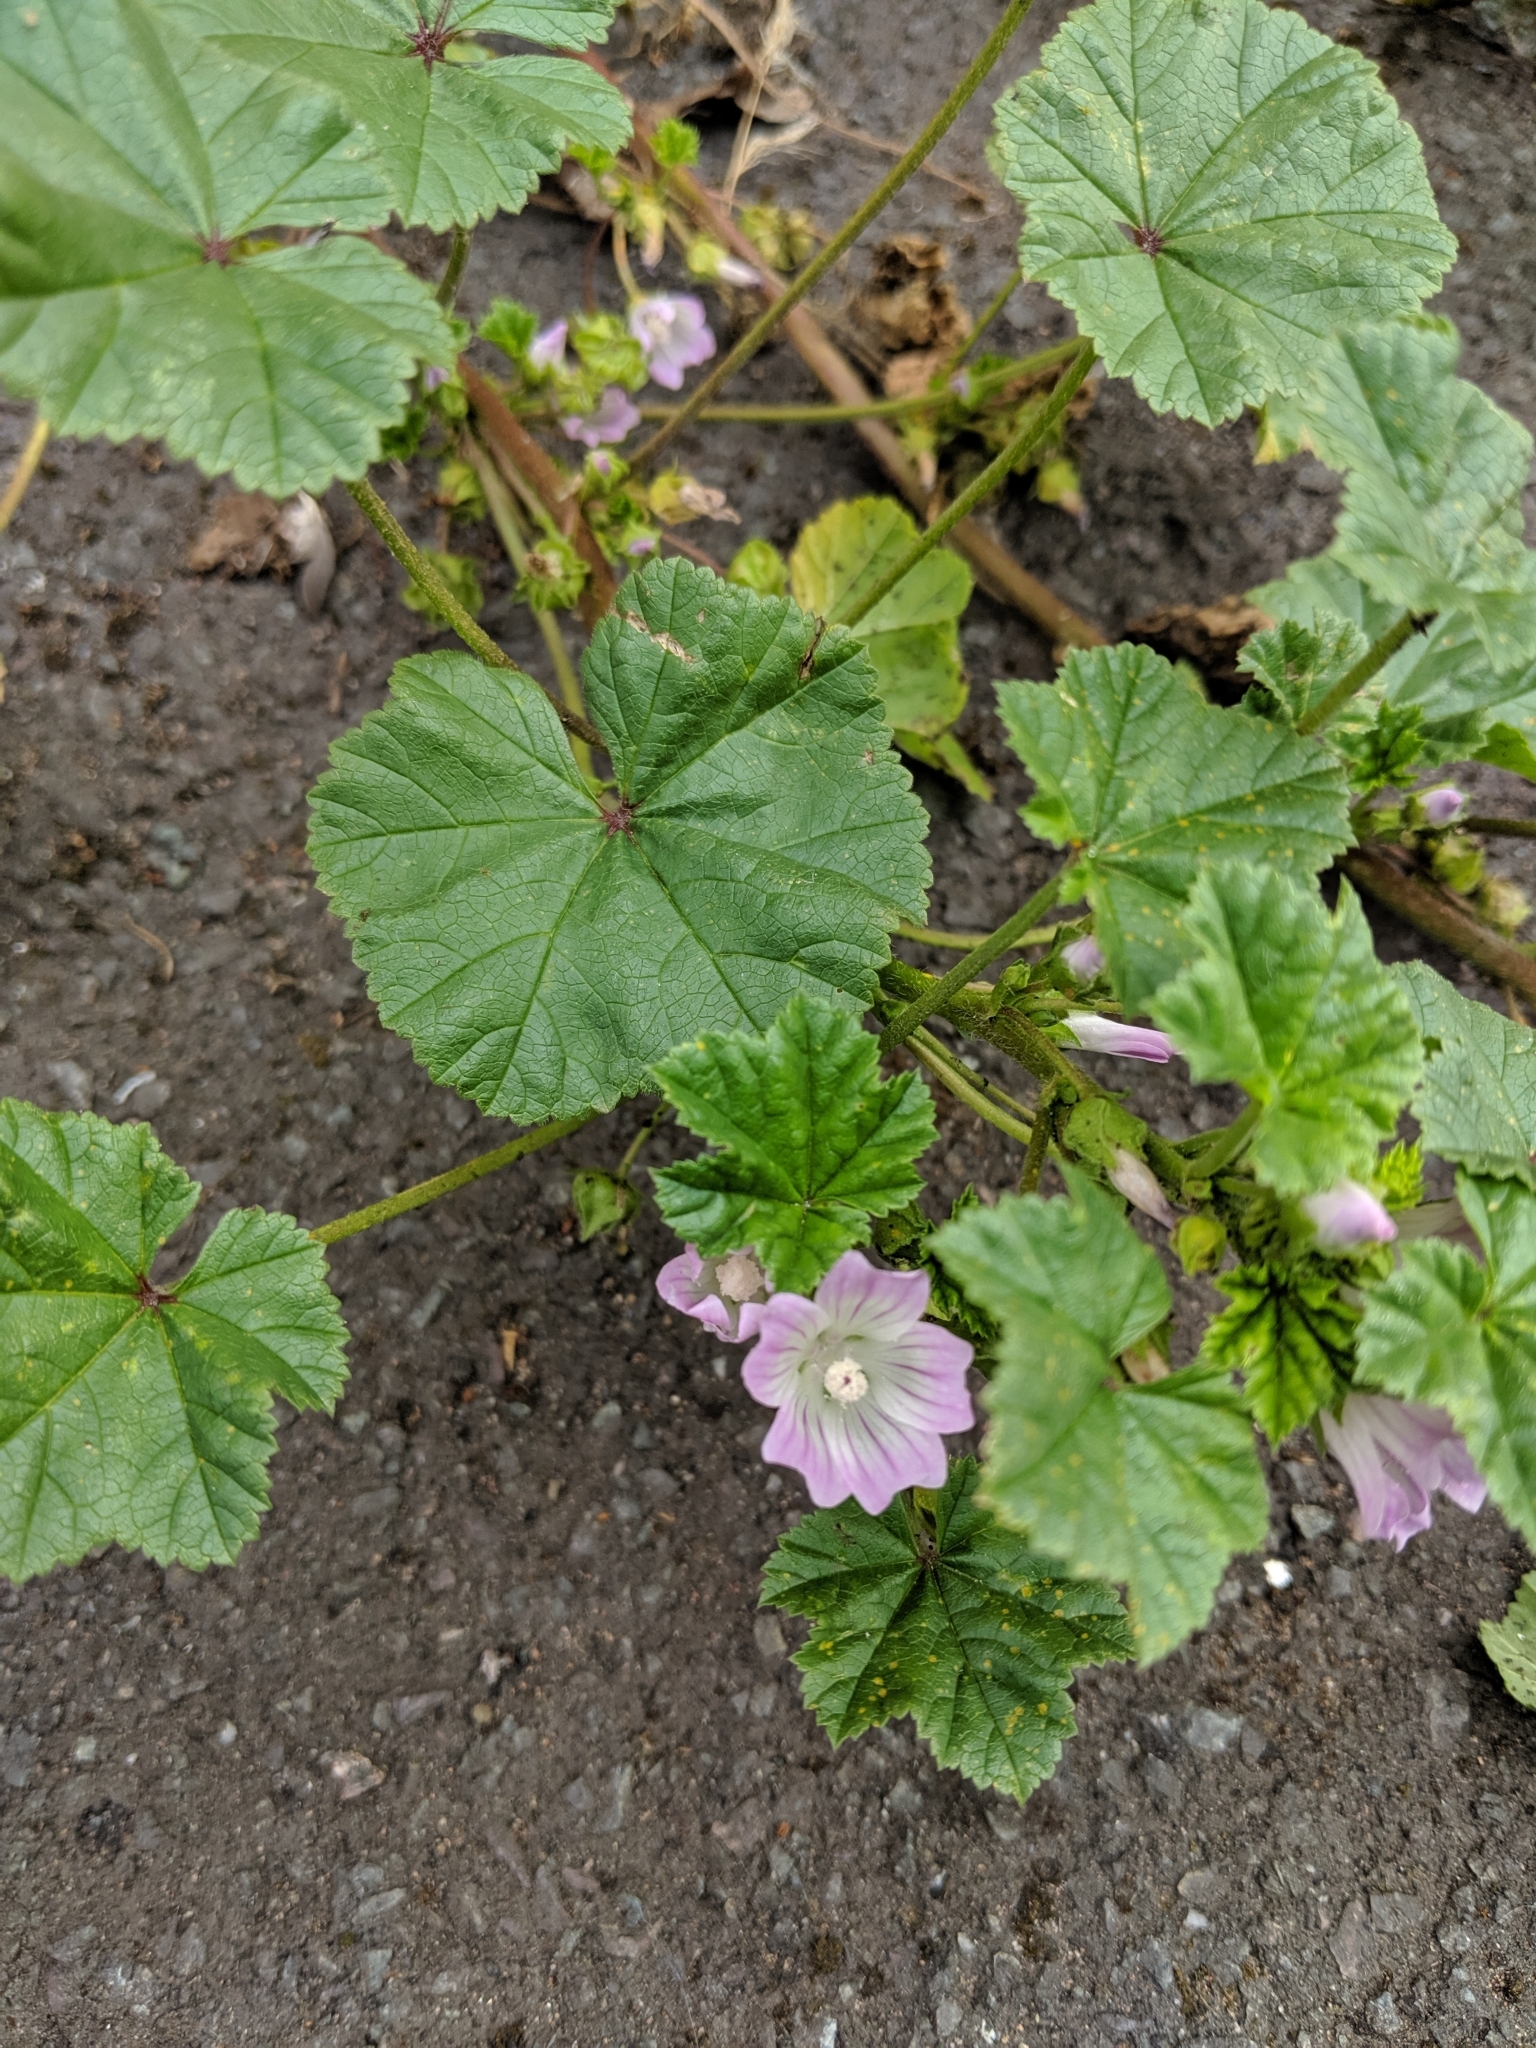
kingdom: Plantae
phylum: Tracheophyta
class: Magnoliopsida
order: Malvales
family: Malvaceae
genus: Malva
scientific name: Malva neglecta
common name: Common mallow
